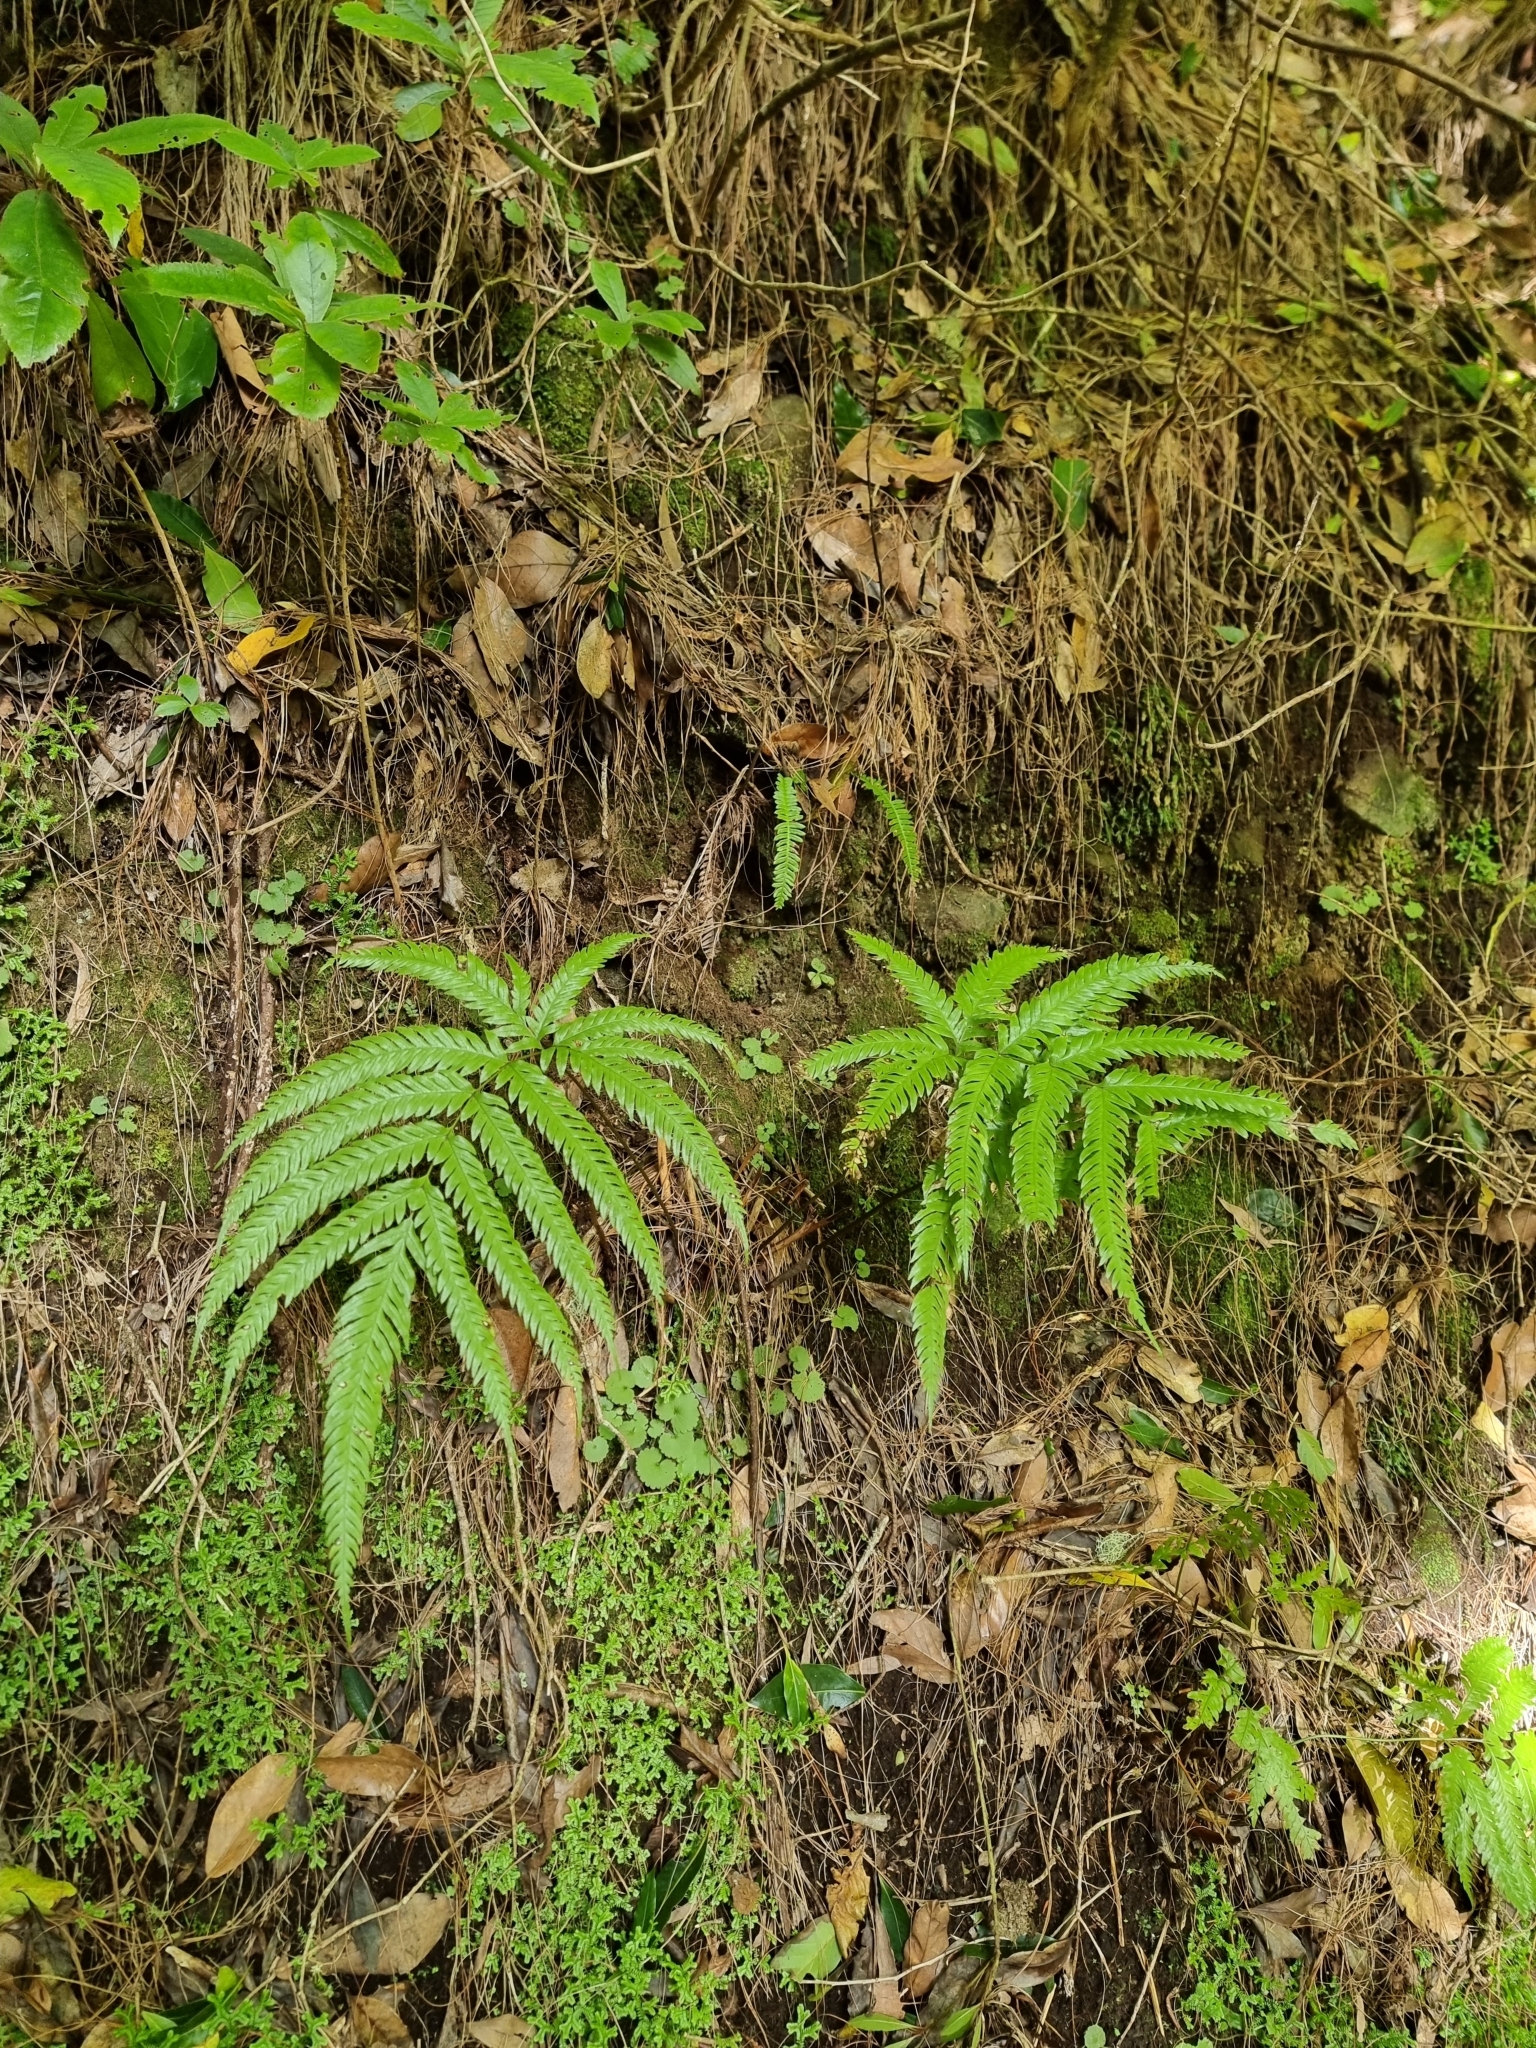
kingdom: Plantae
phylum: Tracheophyta
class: Polypodiopsida
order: Polypodiales
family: Pteridaceae
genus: Pteris
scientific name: Pteris incompleta
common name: Laurisilva brake
